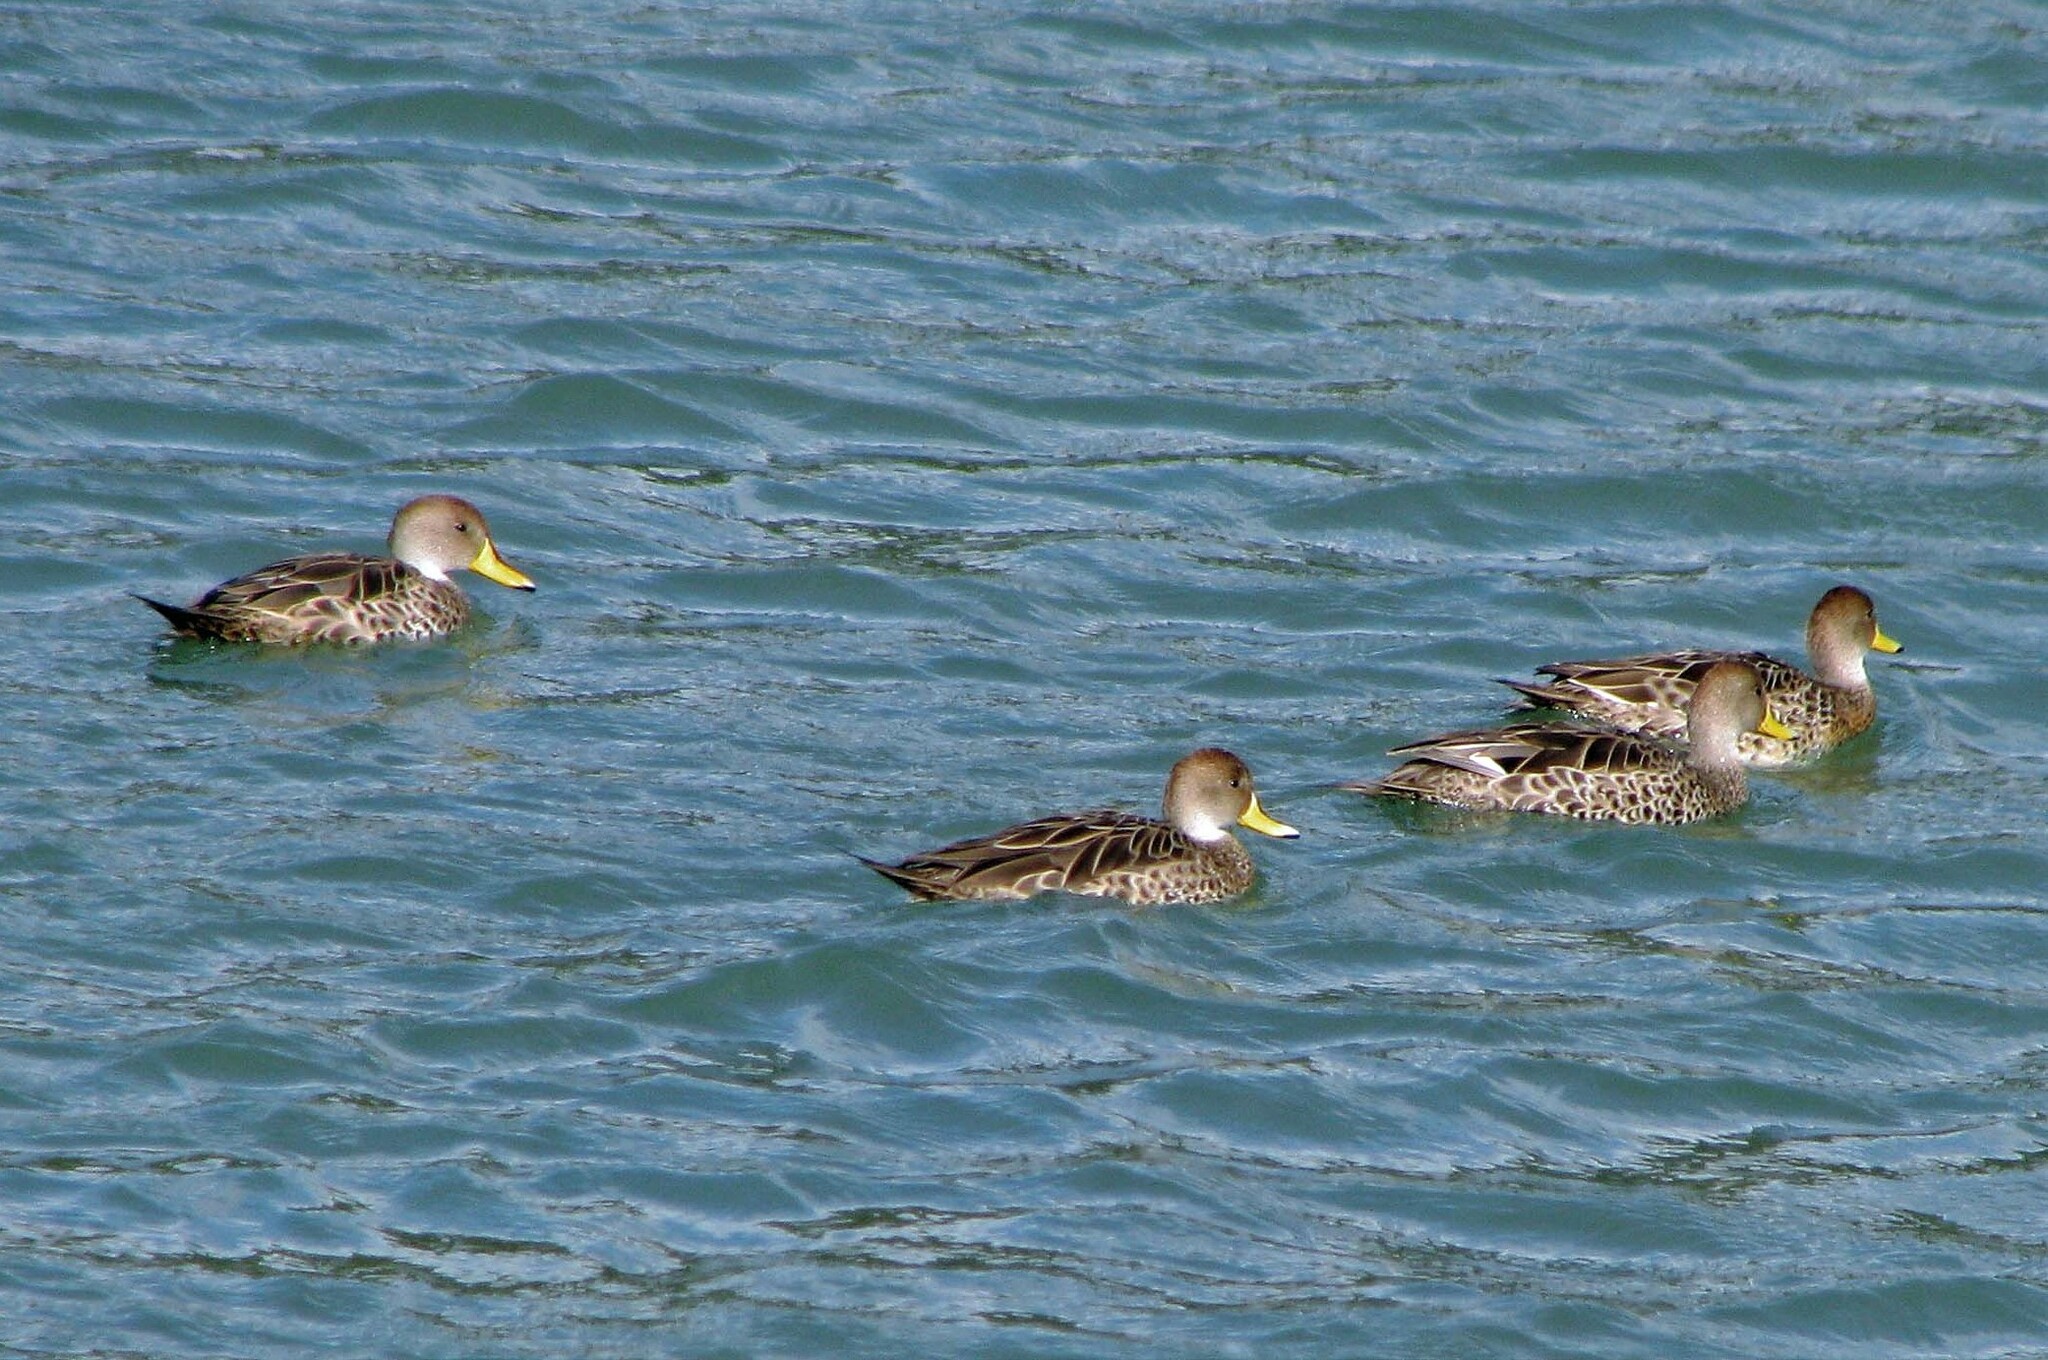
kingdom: Animalia
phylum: Chordata
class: Aves
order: Anseriformes
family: Anatidae
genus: Anas
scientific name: Anas georgica
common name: Yellow-billed pintail
